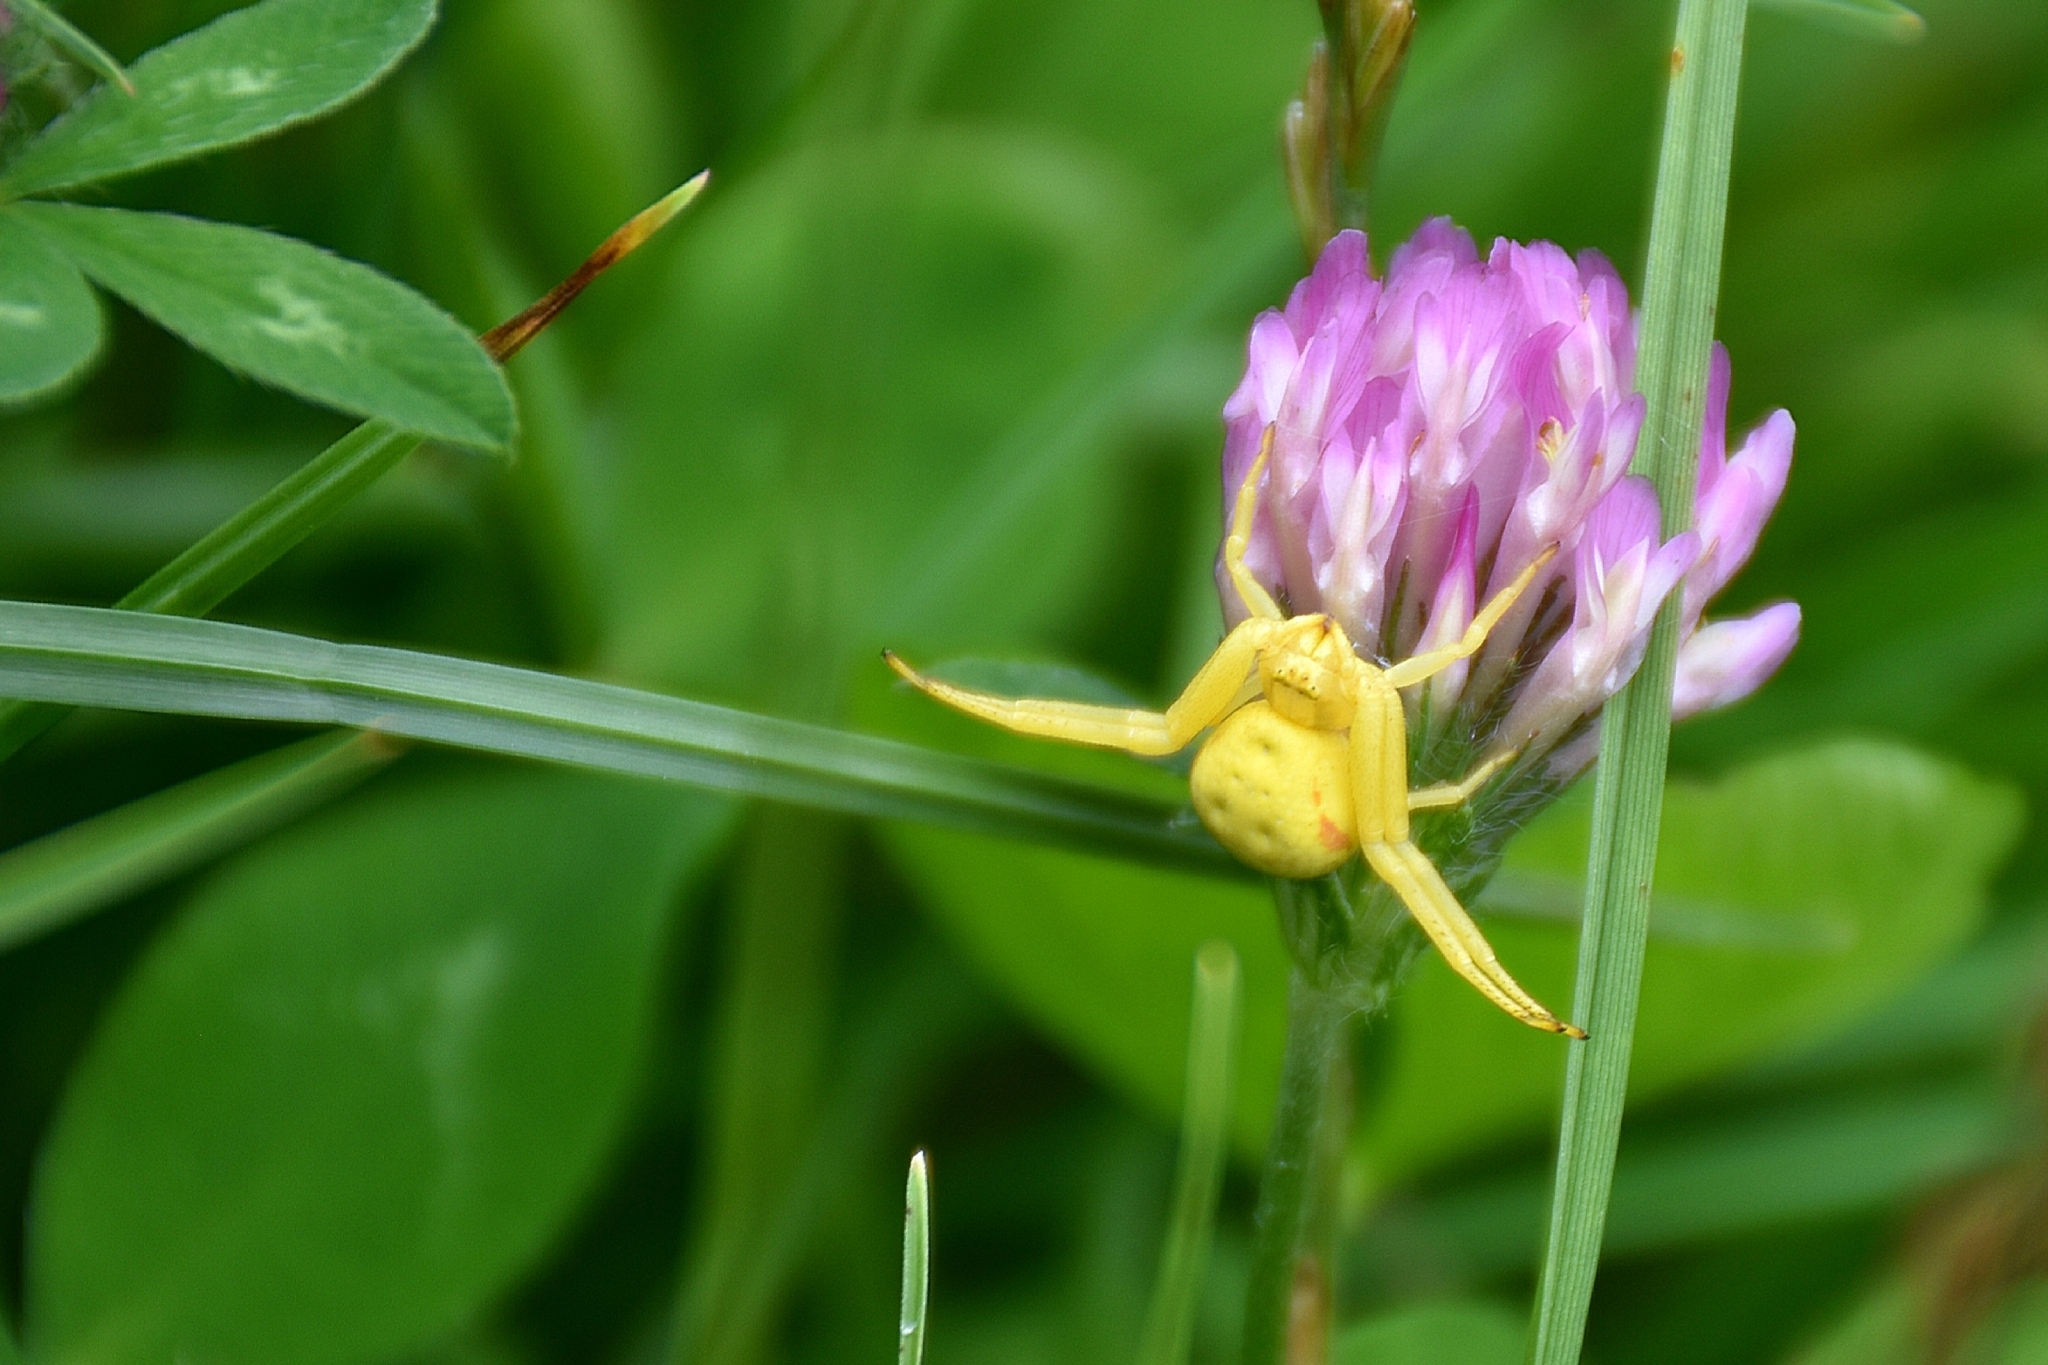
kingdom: Animalia
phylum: Arthropoda
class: Arachnida
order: Araneae
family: Thomisidae
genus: Misumena
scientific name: Misumena vatia
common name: Goldenrod crab spider
